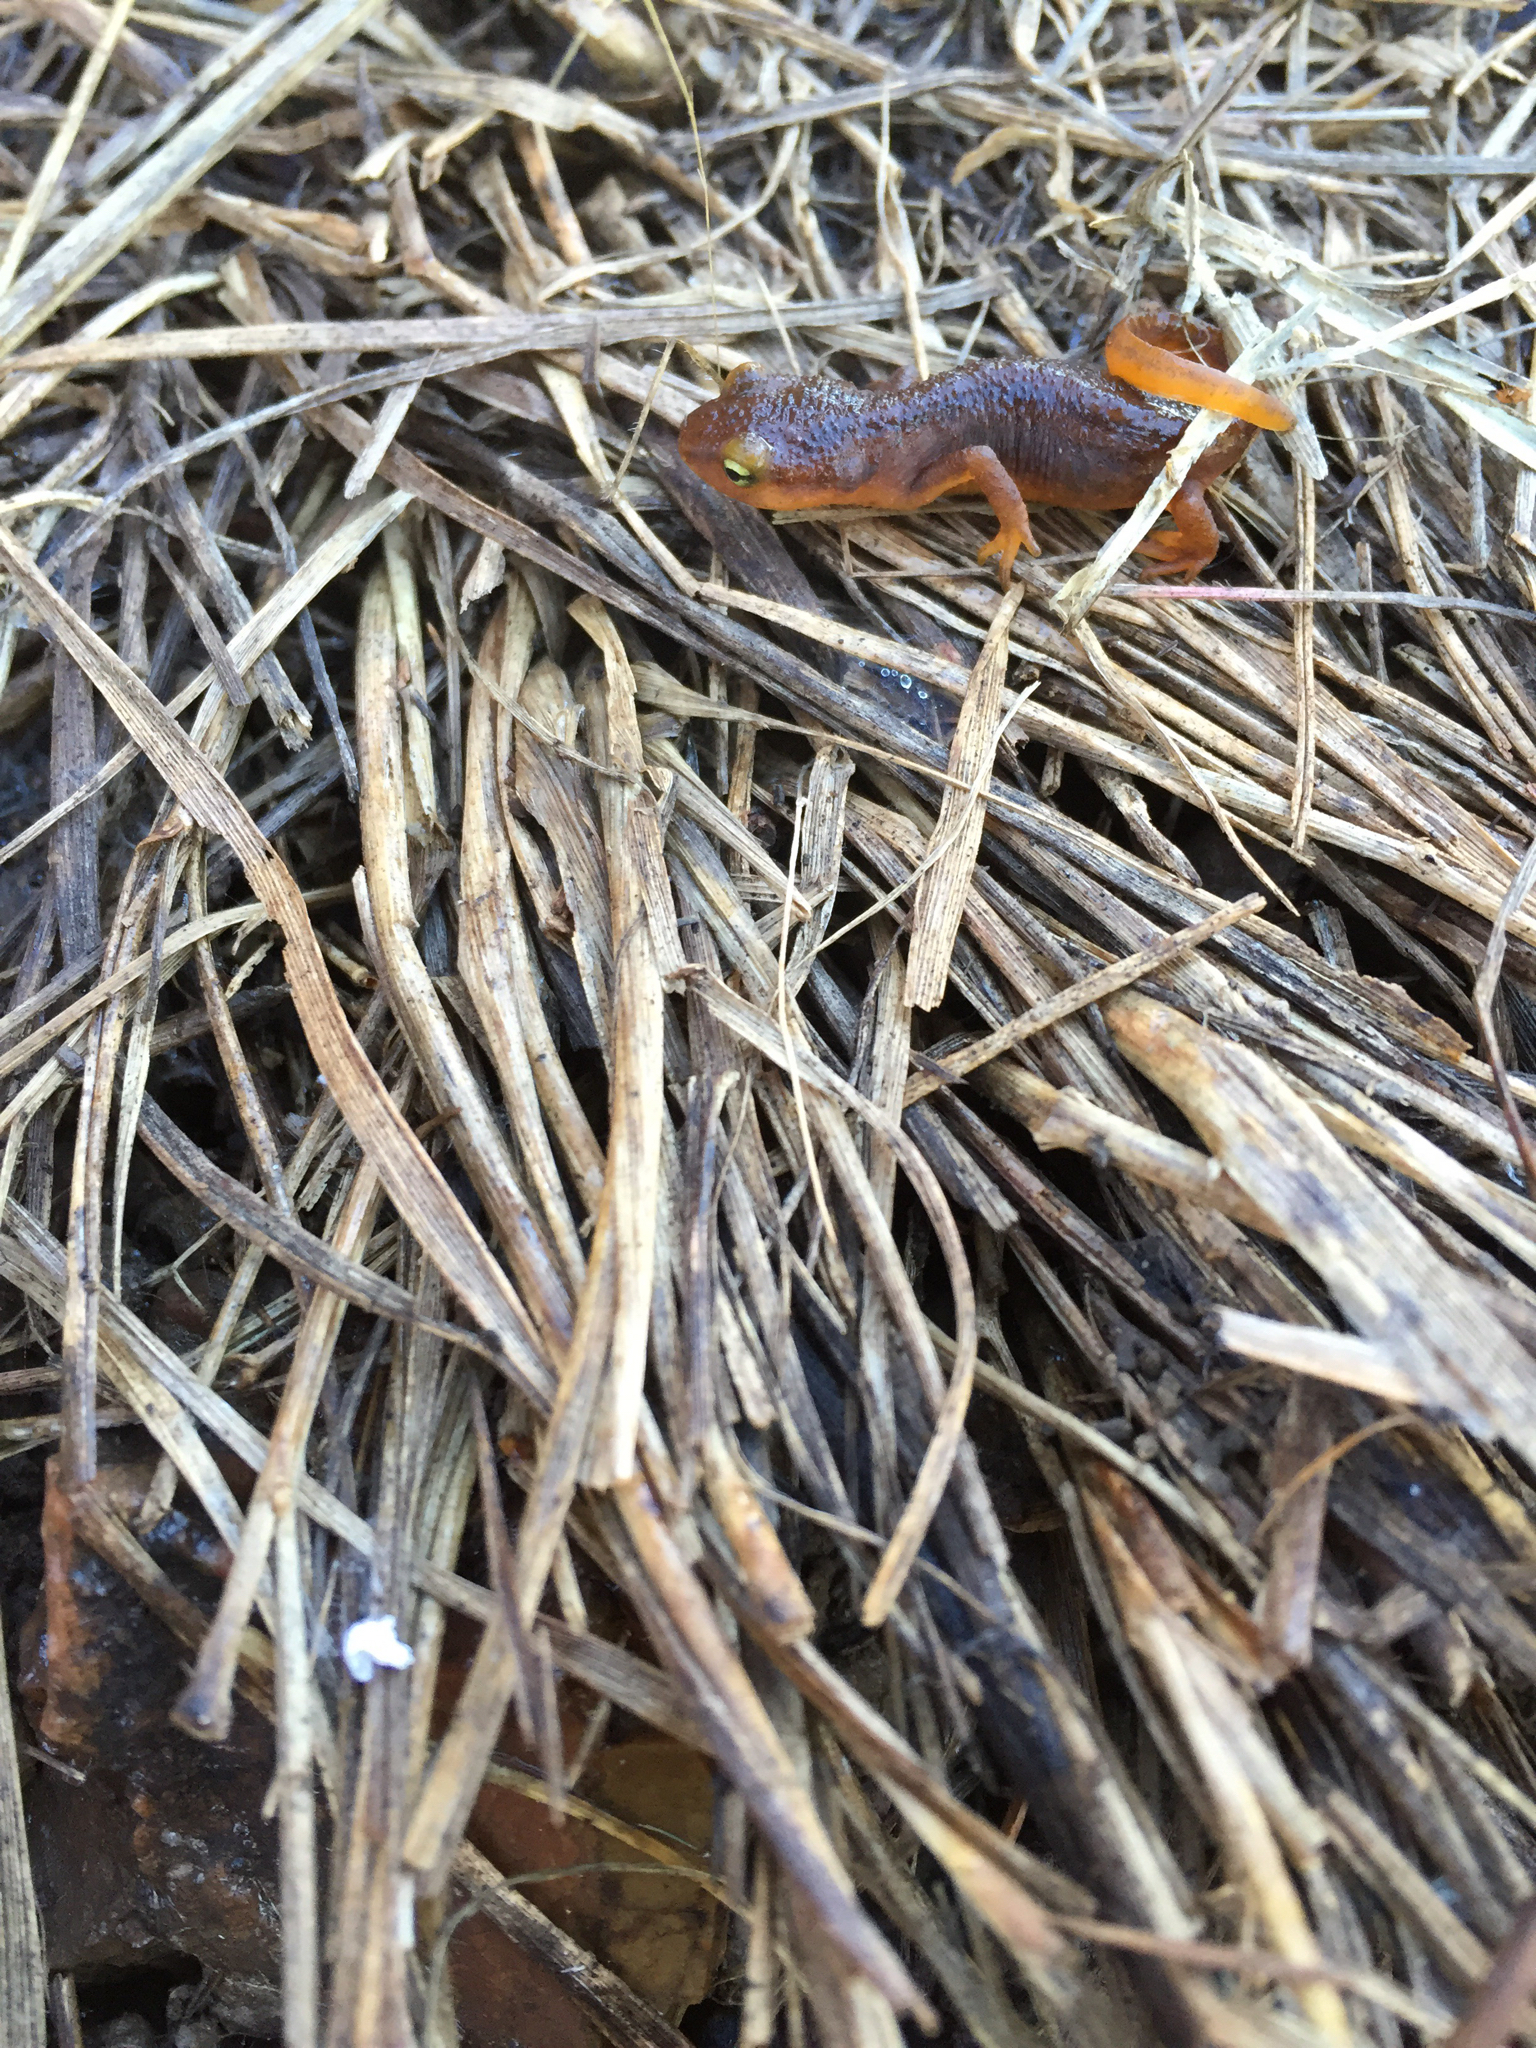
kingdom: Animalia
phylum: Chordata
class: Amphibia
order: Caudata
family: Salamandridae
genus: Taricha
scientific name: Taricha torosa
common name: California newt
